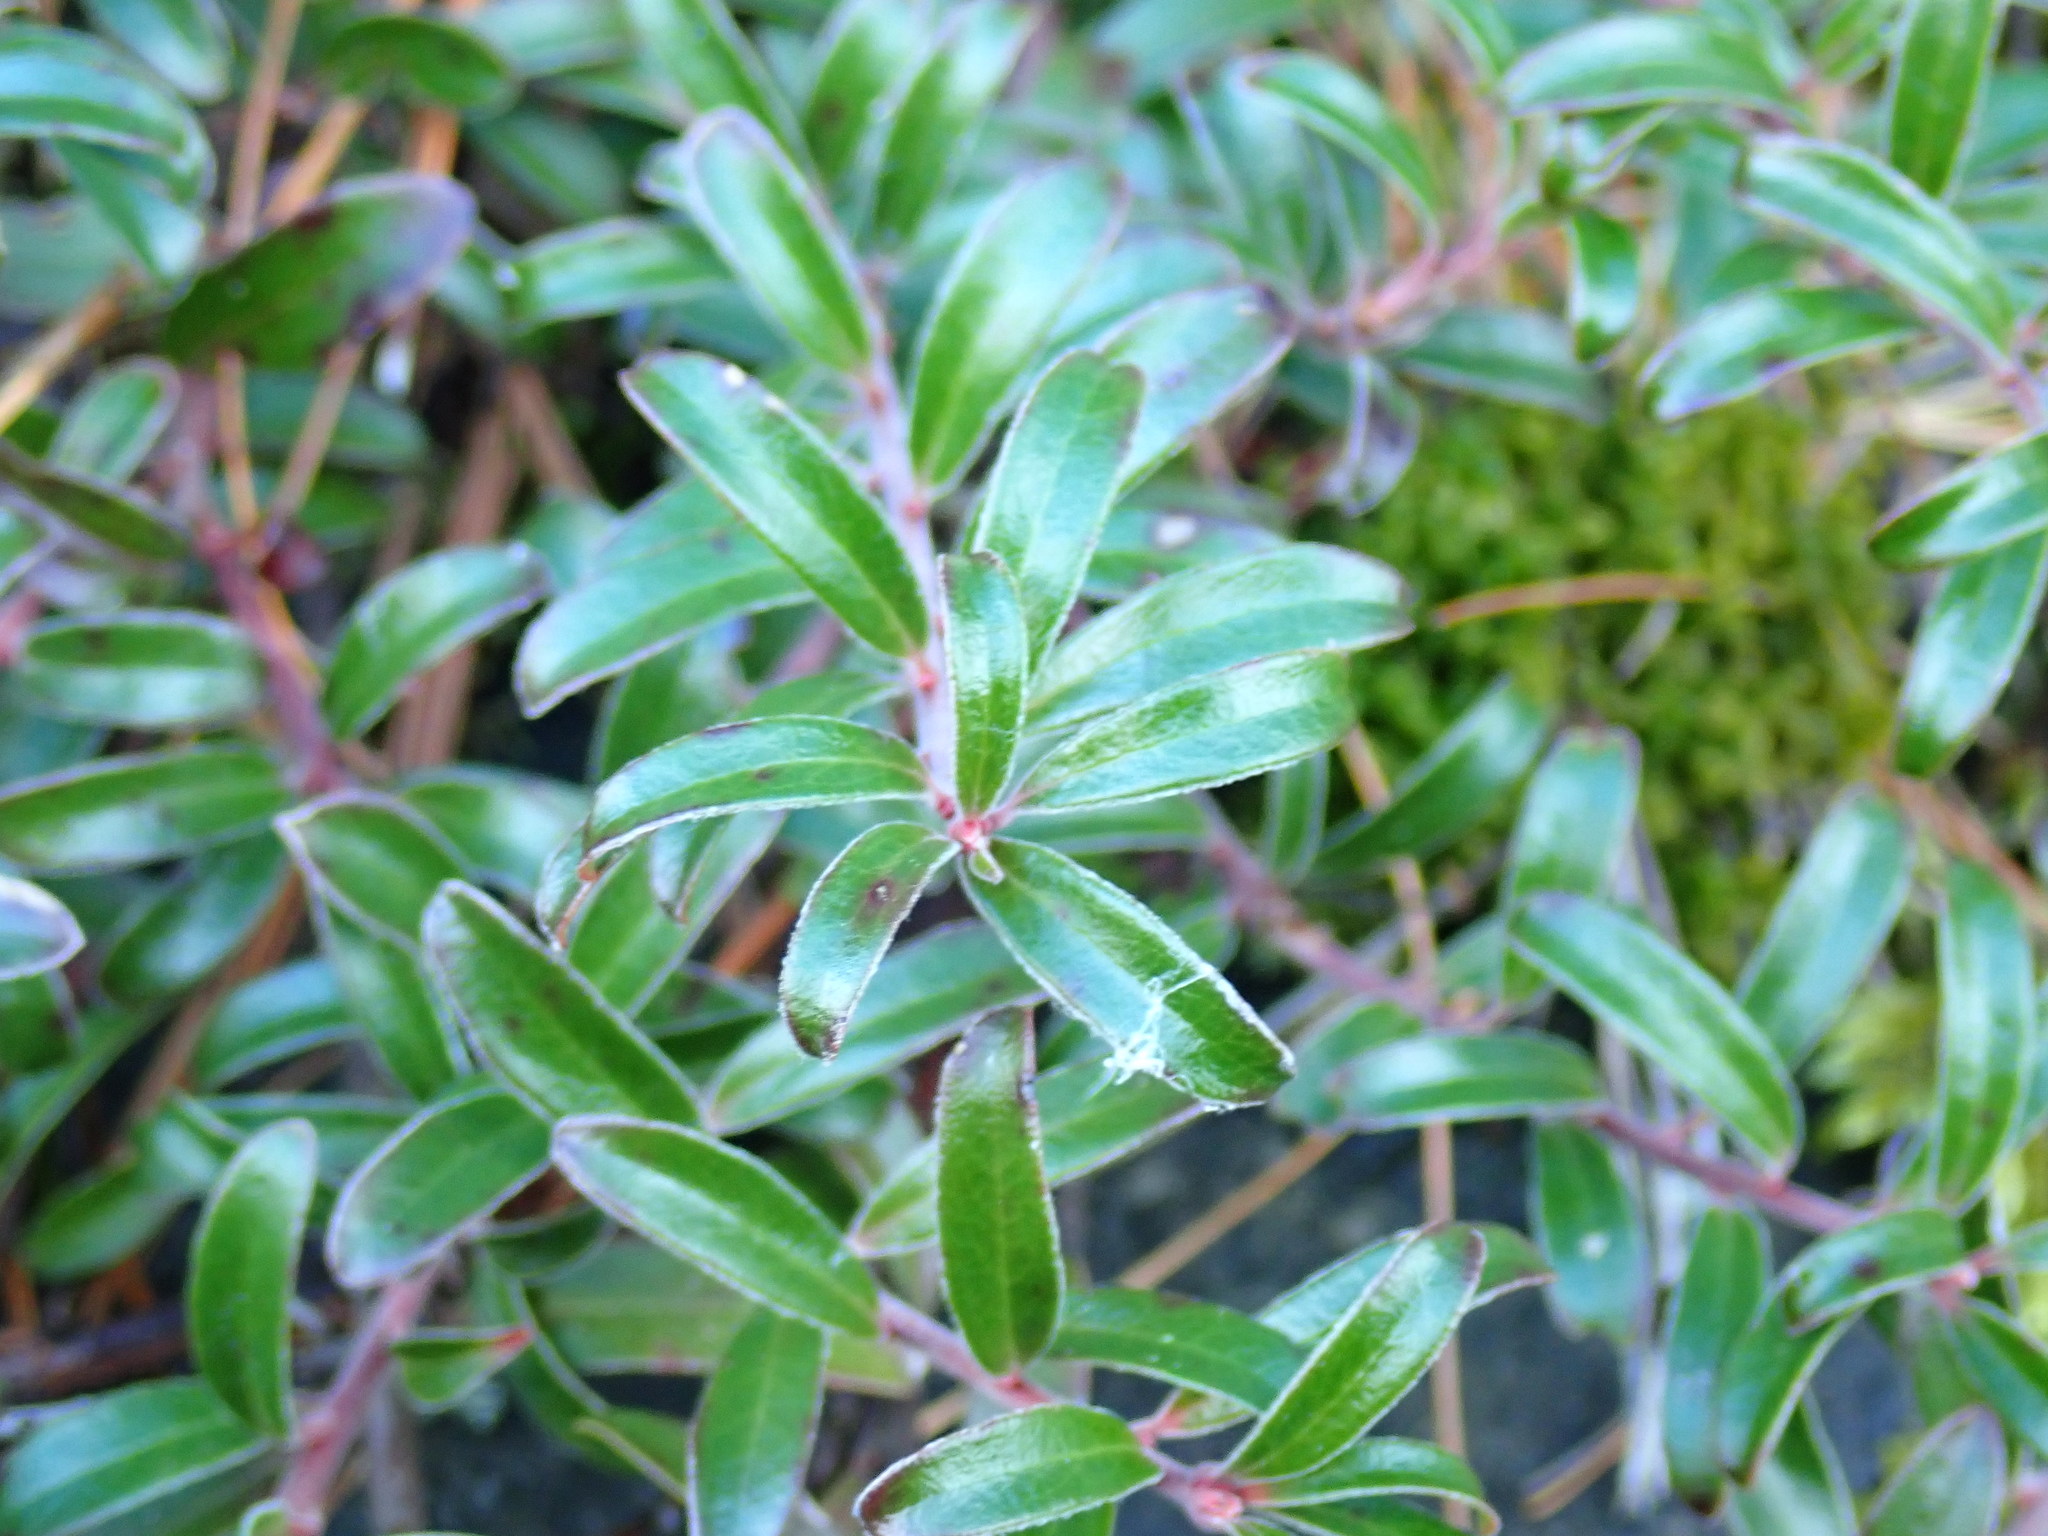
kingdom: Plantae
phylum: Tracheophyta
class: Magnoliopsida
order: Ericales
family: Ericaceae
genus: Arctostaphylos
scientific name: Arctostaphylos uva-ursi
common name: Bearberry
